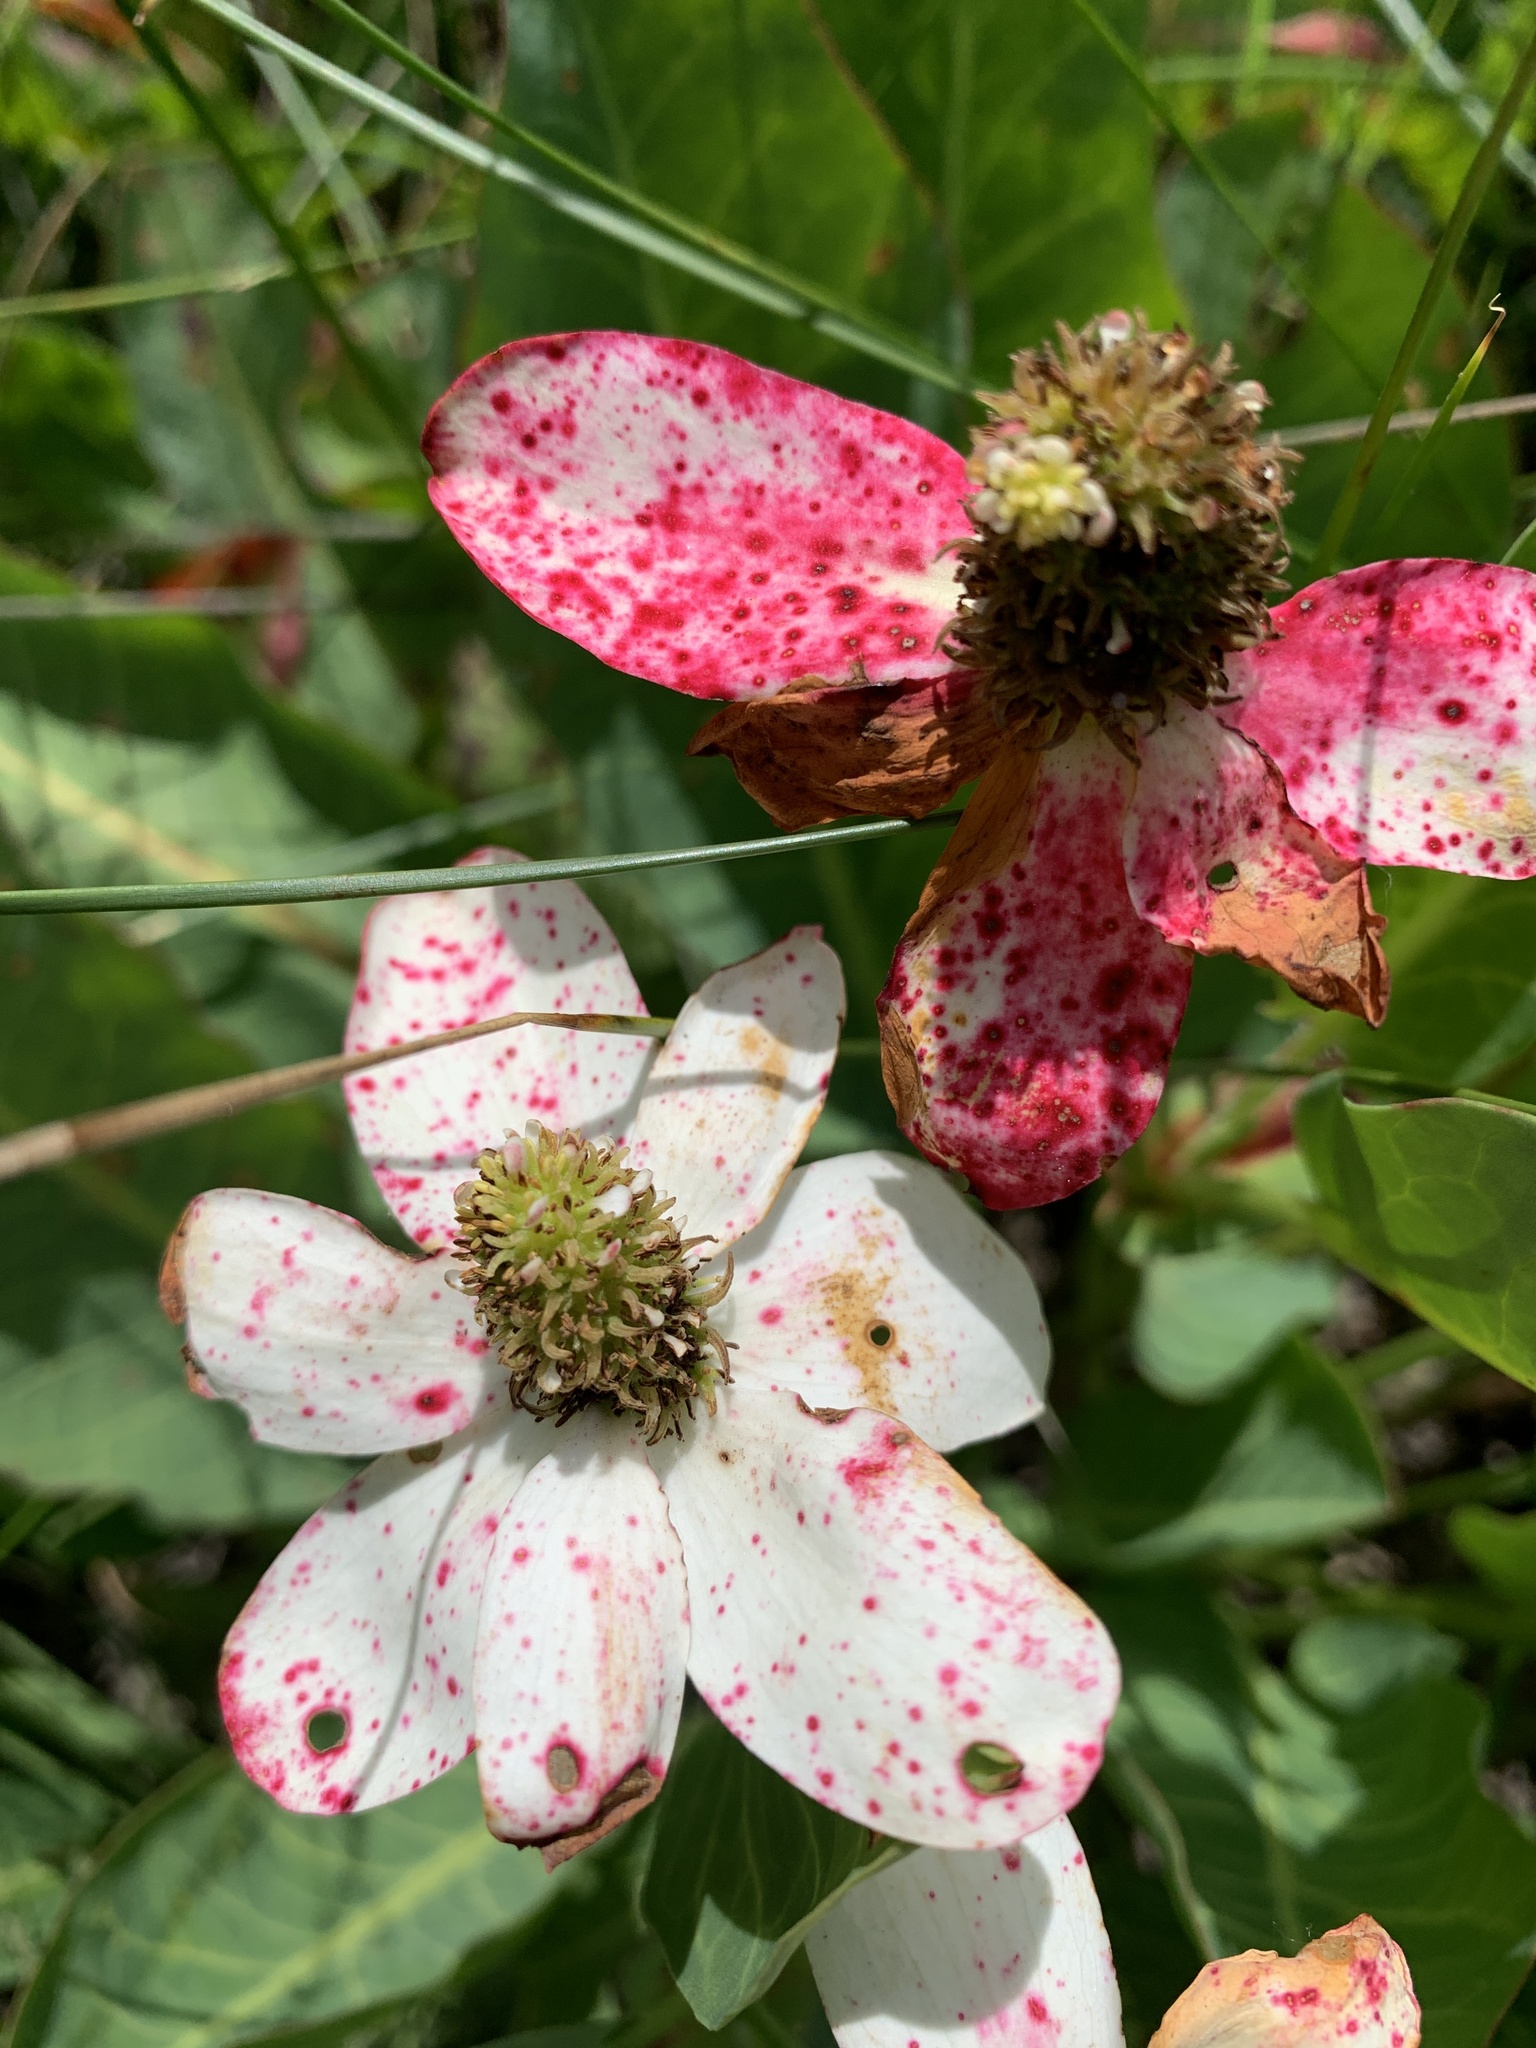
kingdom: Plantae
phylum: Tracheophyta
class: Magnoliopsida
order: Piperales
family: Saururaceae
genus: Anemopsis
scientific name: Anemopsis californica
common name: Apache-beads
